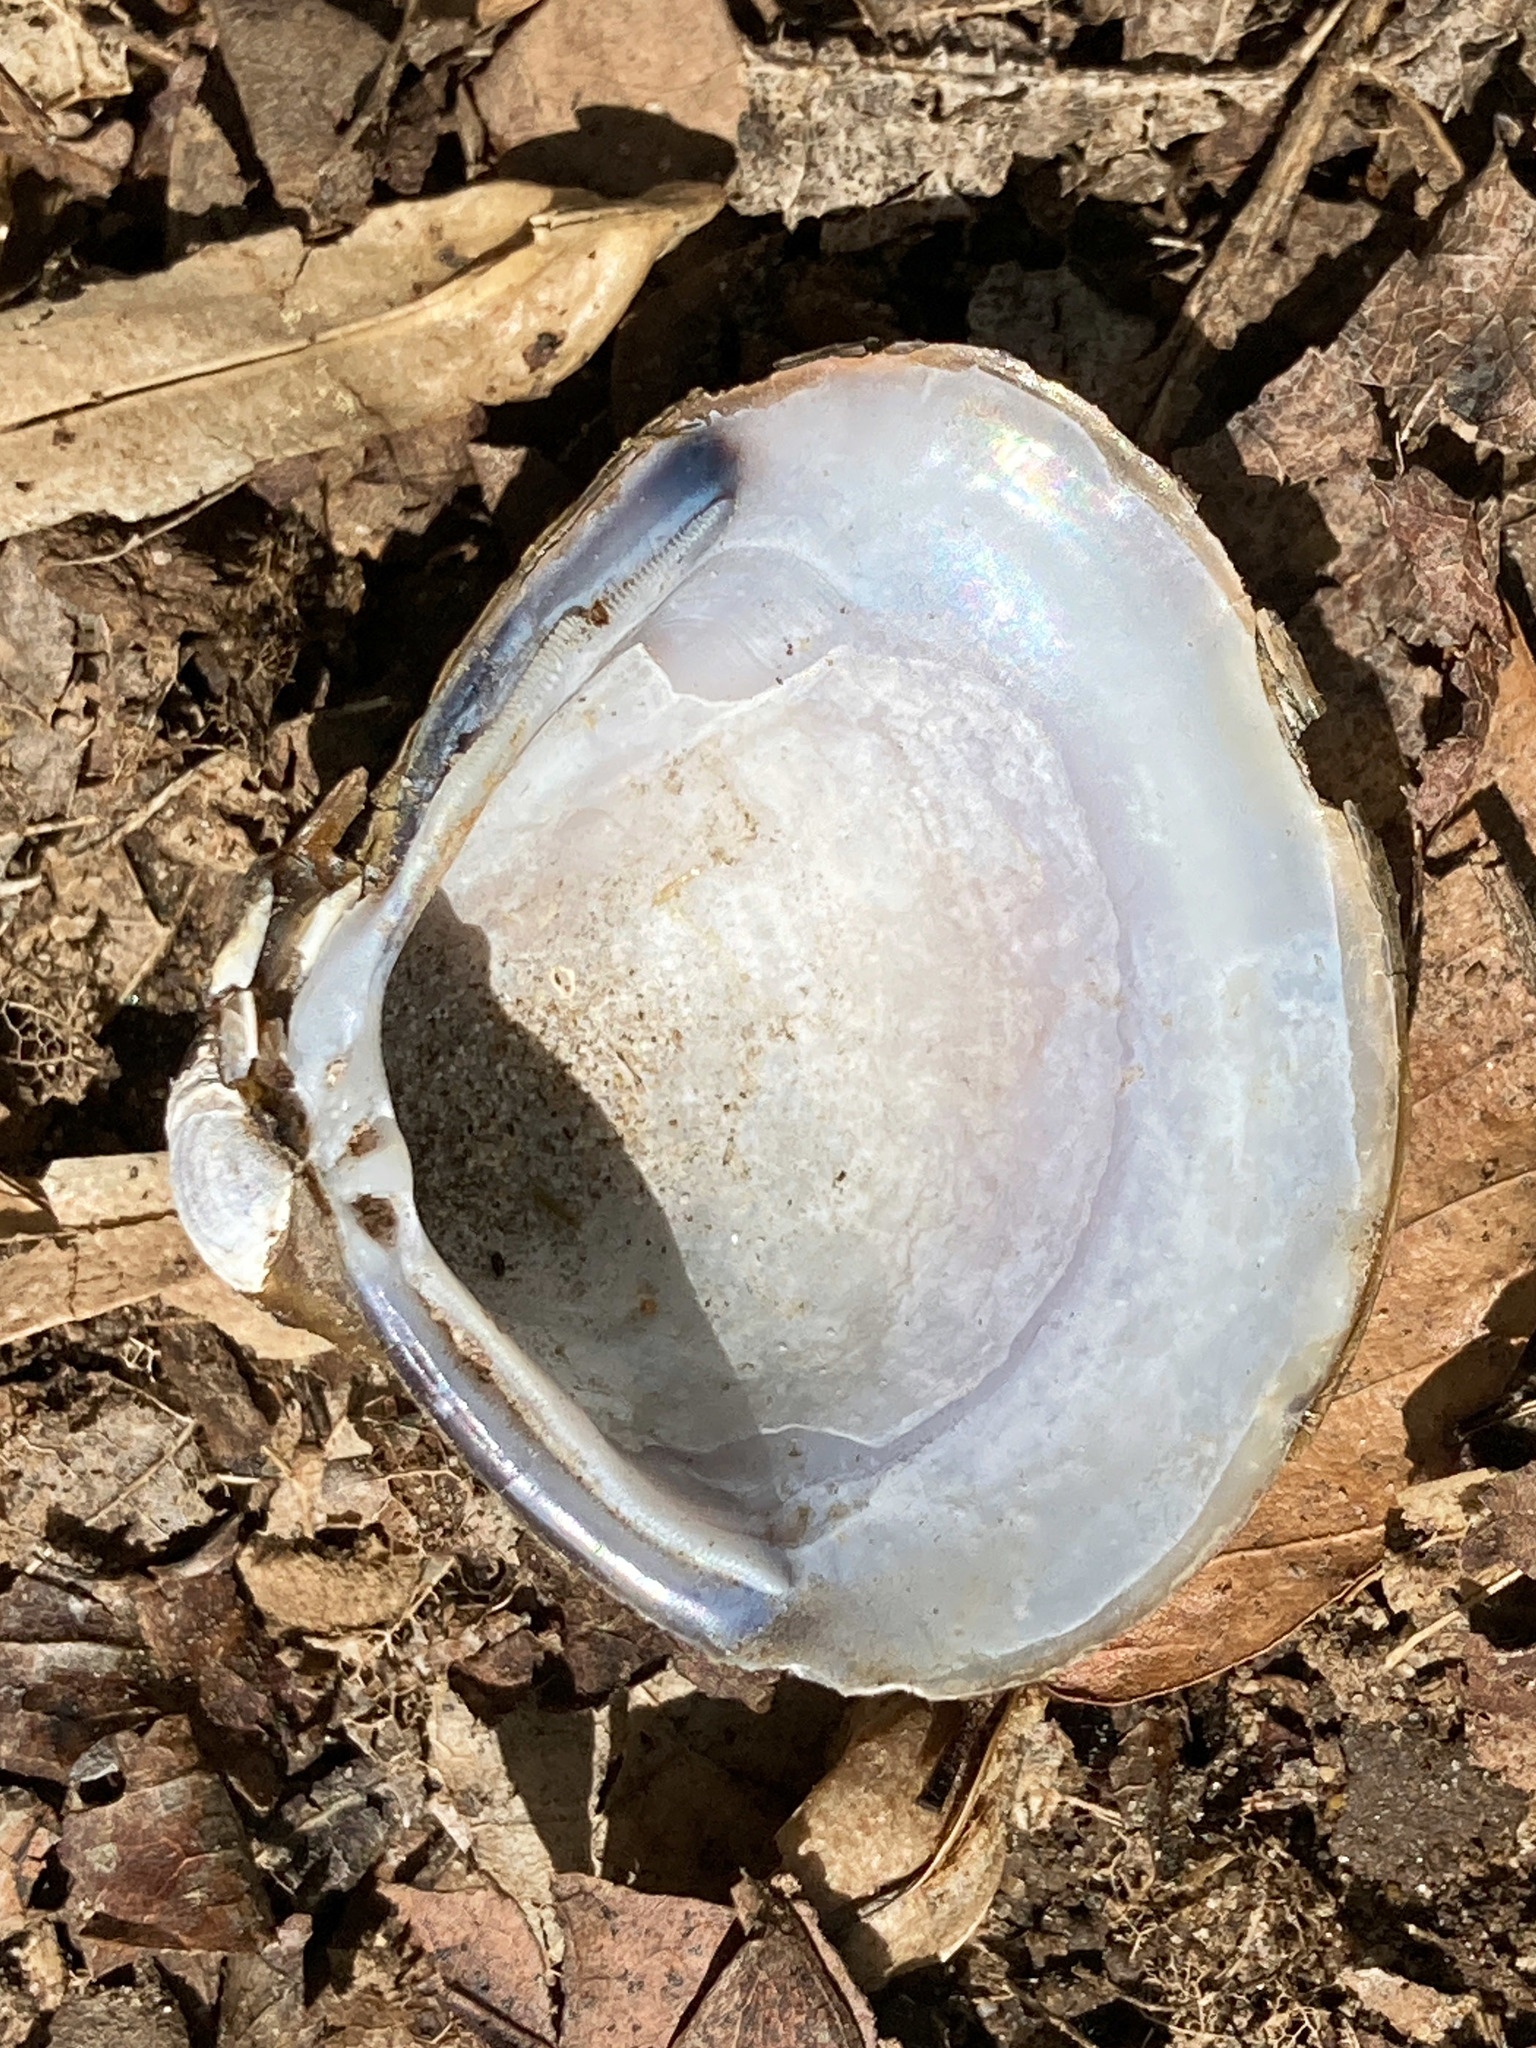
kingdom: Animalia
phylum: Mollusca
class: Bivalvia
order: Venerida
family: Cyrenidae
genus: Corbicula
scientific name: Corbicula fluminea
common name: Asian clam
